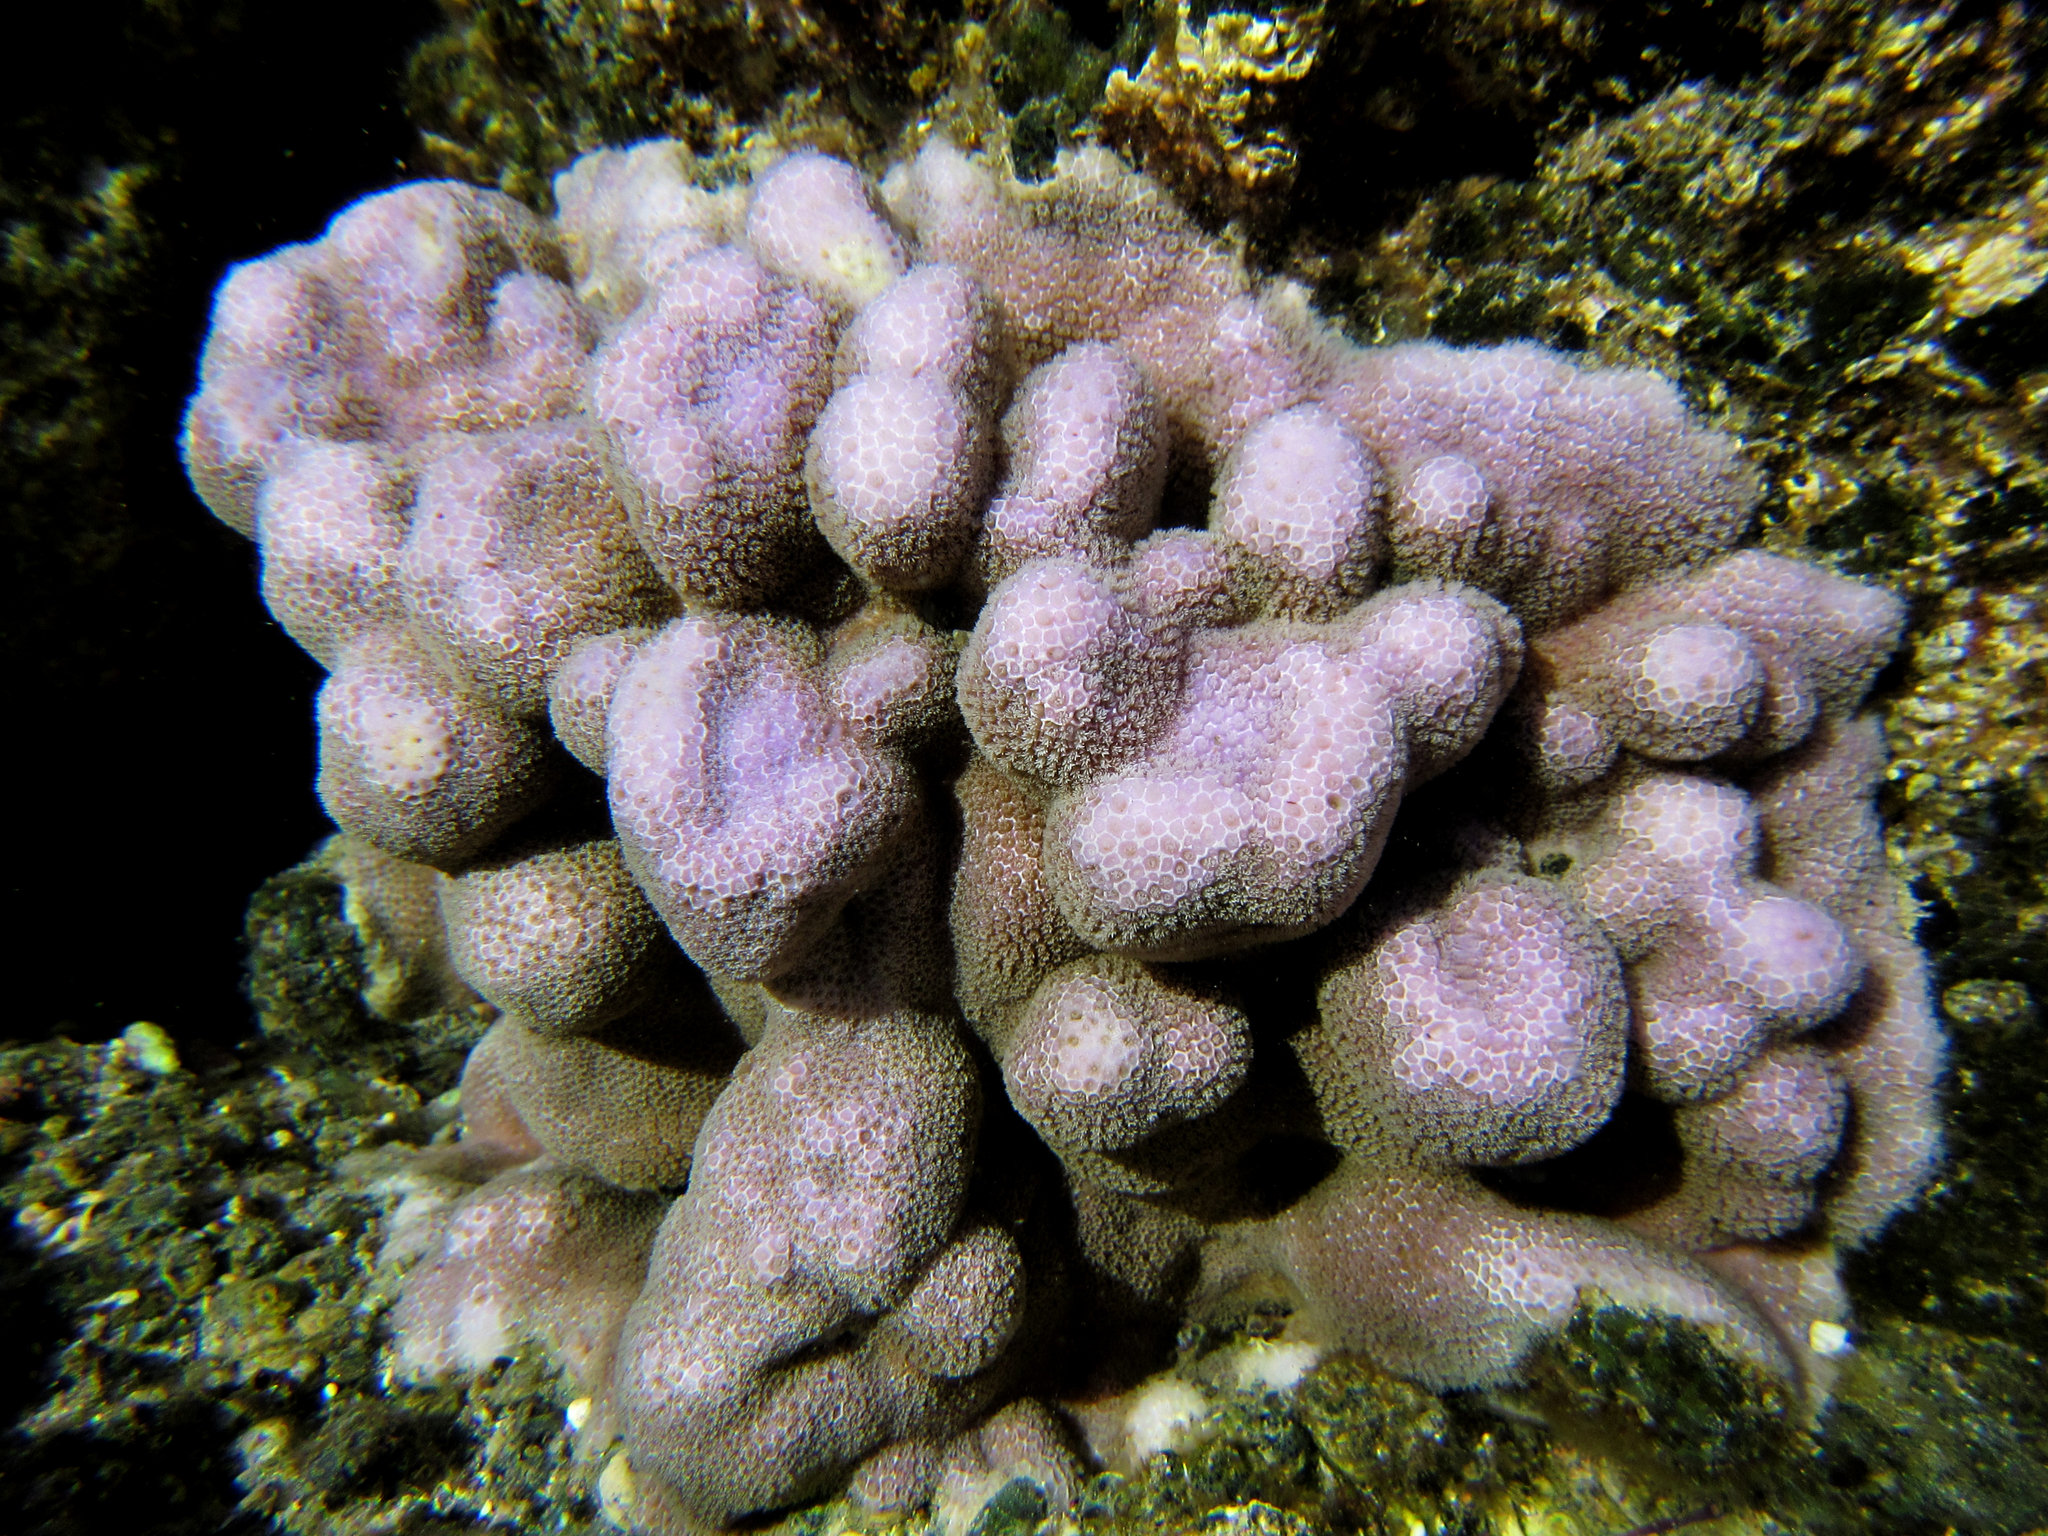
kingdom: Animalia
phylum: Cnidaria
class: Anthozoa
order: Scleractinia
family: Poritidae
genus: Porites
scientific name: Porites lobata
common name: Hump coral
